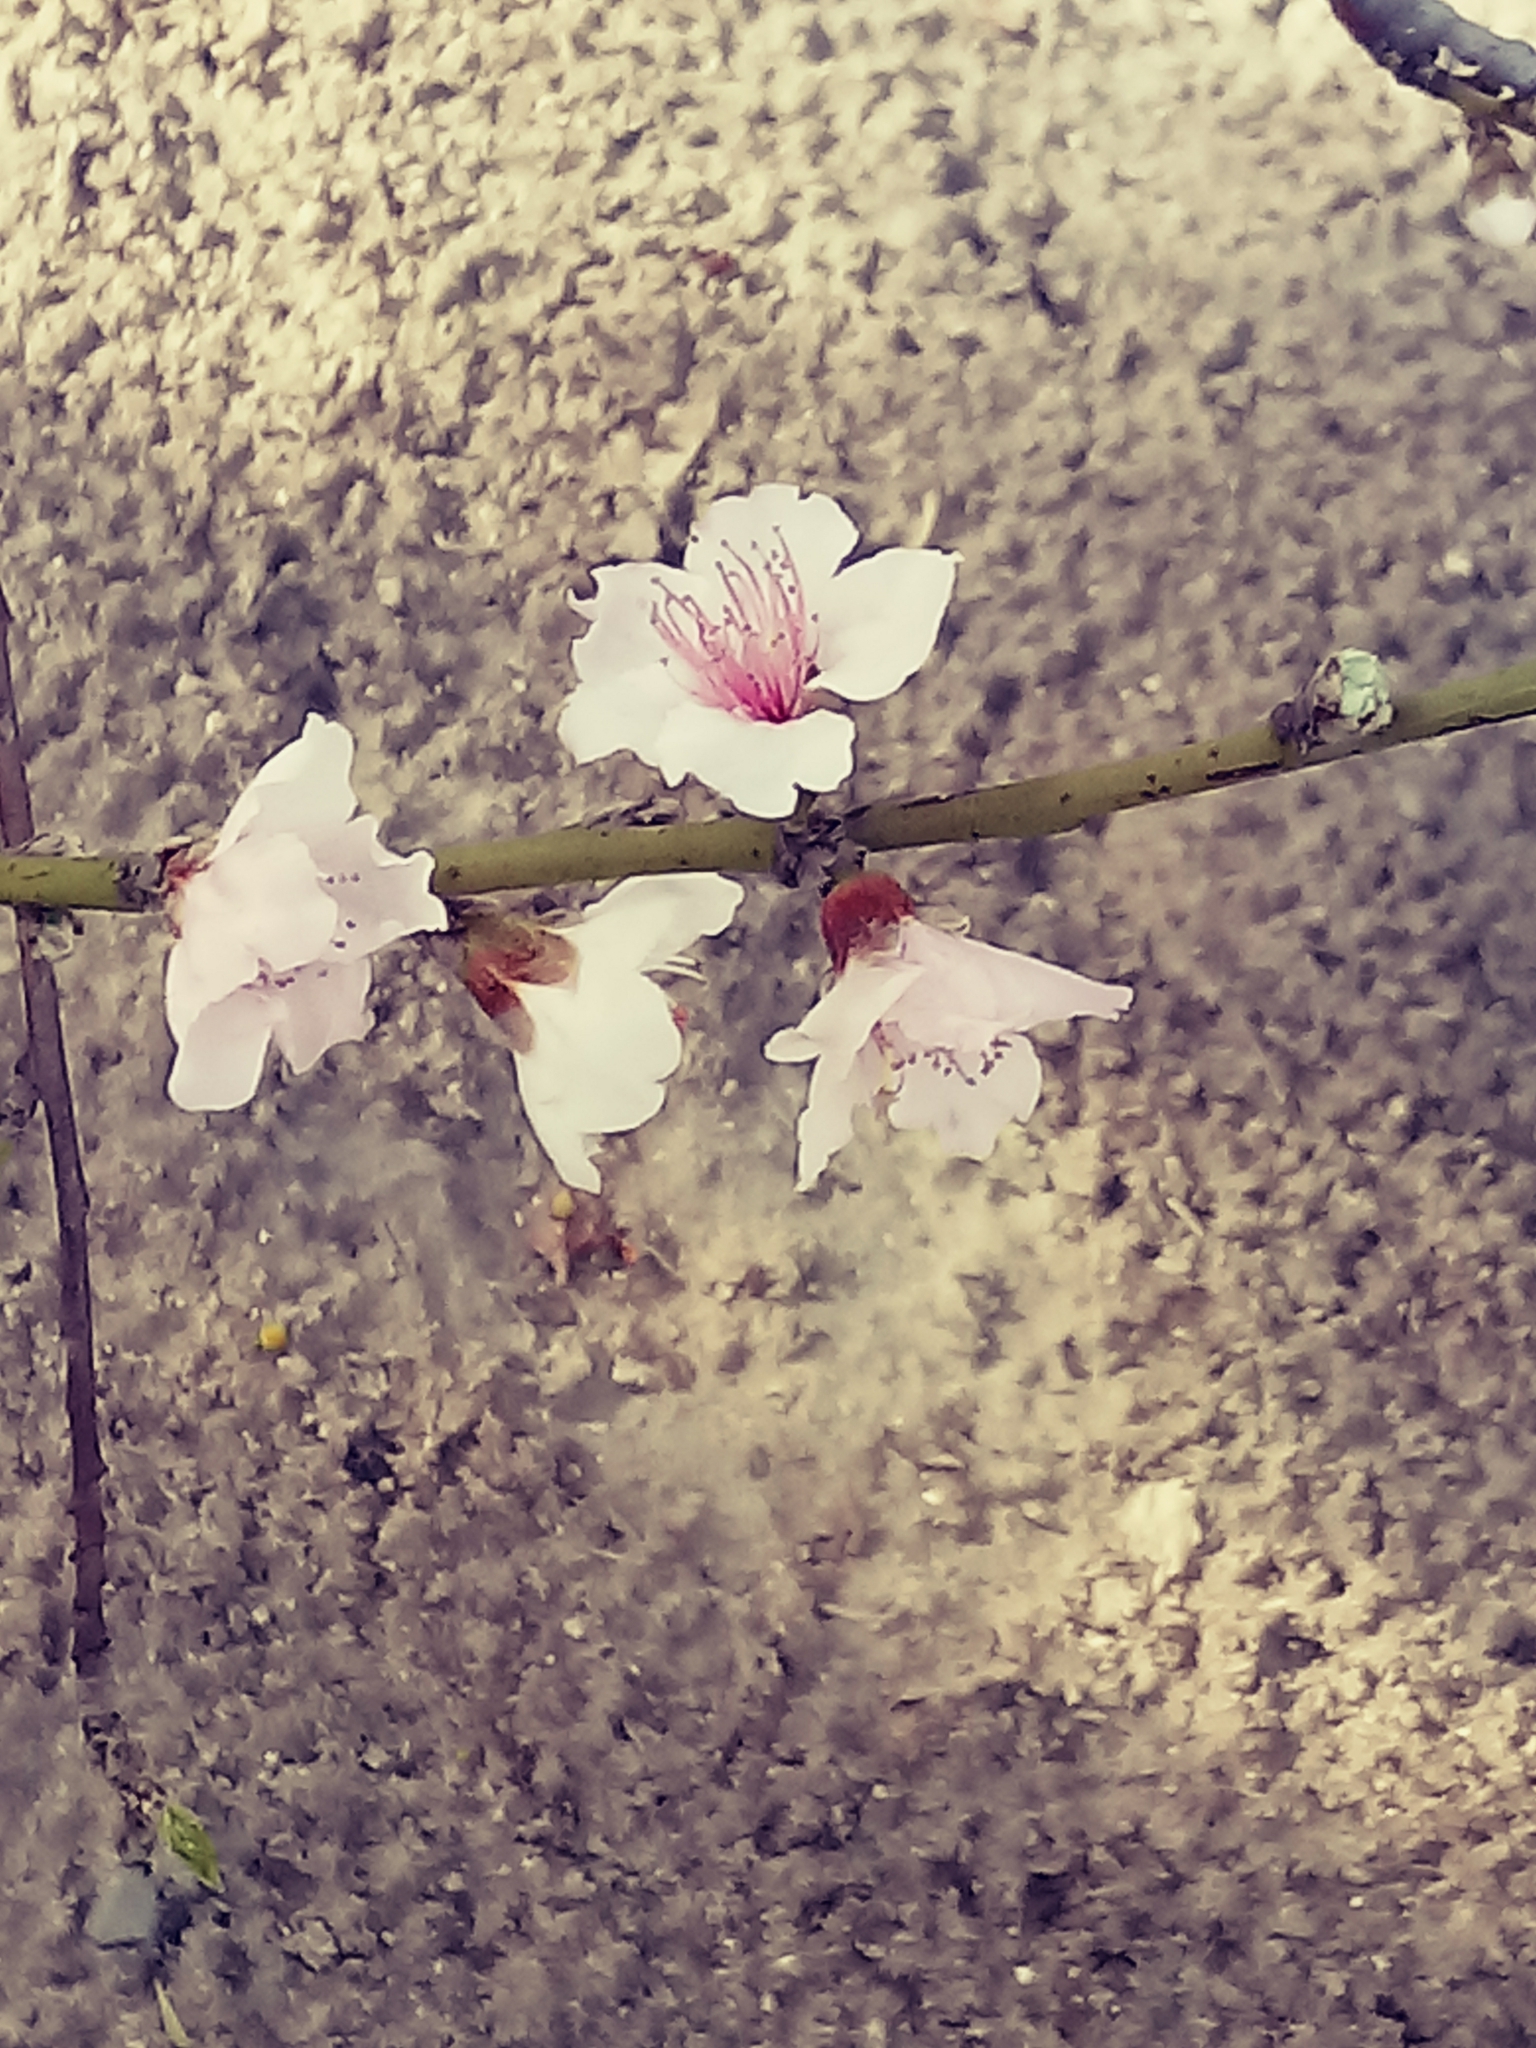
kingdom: Plantae
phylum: Tracheophyta
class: Magnoliopsida
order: Rosales
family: Rosaceae
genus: Prunus
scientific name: Prunus persica
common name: Peach
